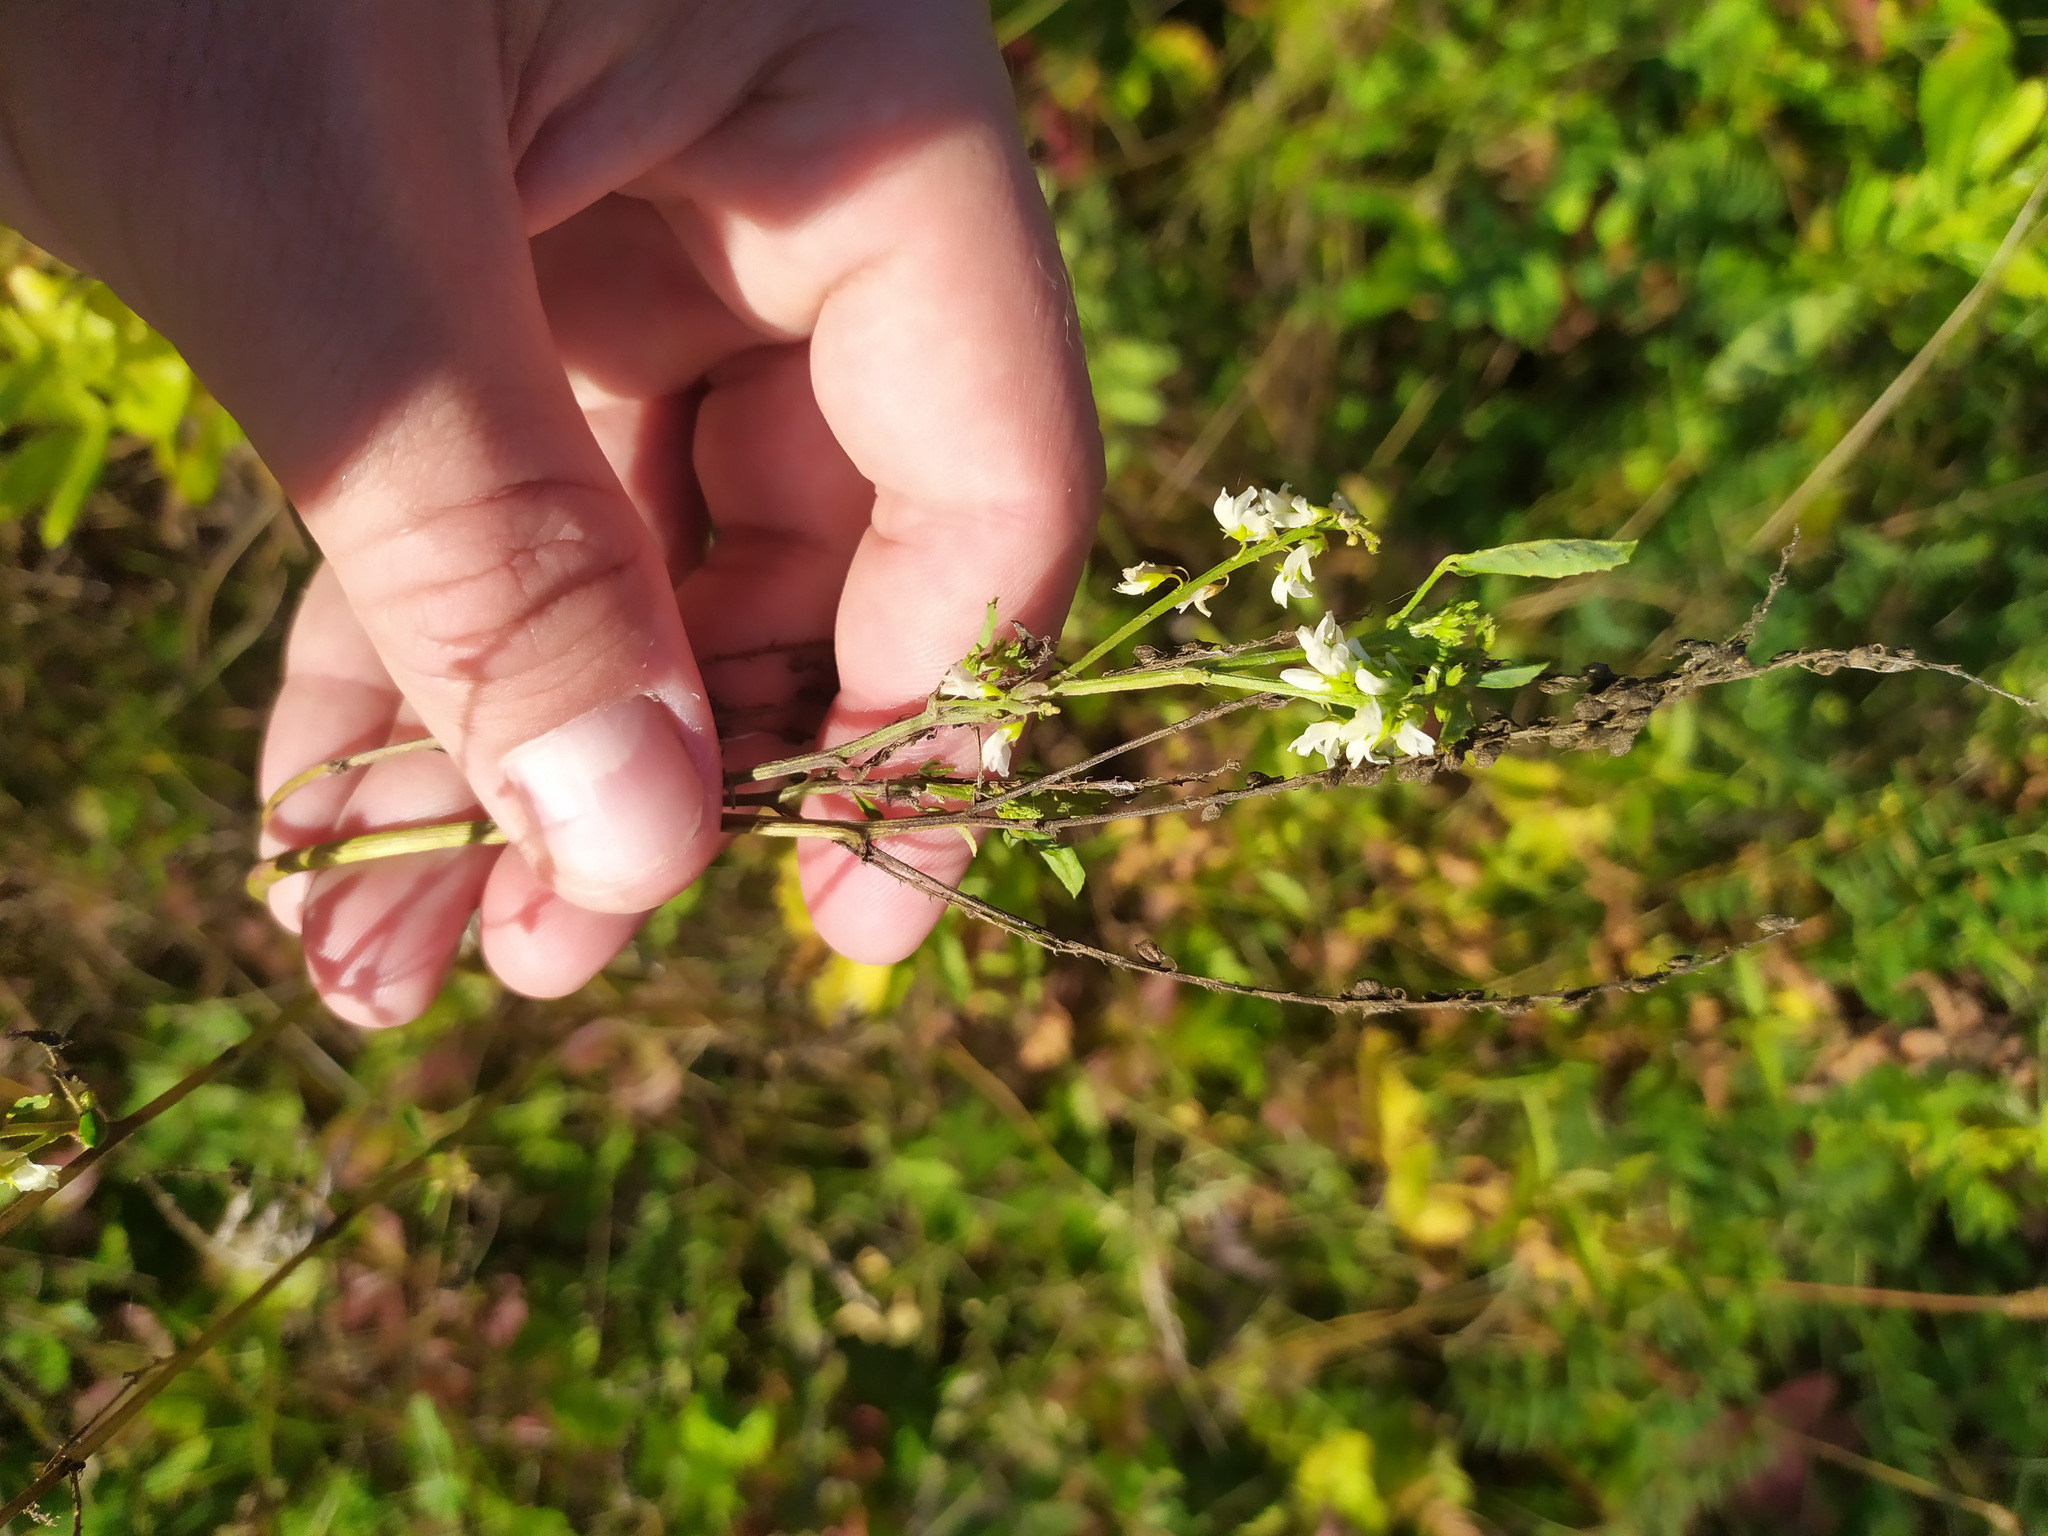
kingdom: Plantae
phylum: Tracheophyta
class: Magnoliopsida
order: Fabales
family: Fabaceae
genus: Melilotus
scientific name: Melilotus albus
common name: White melilot
